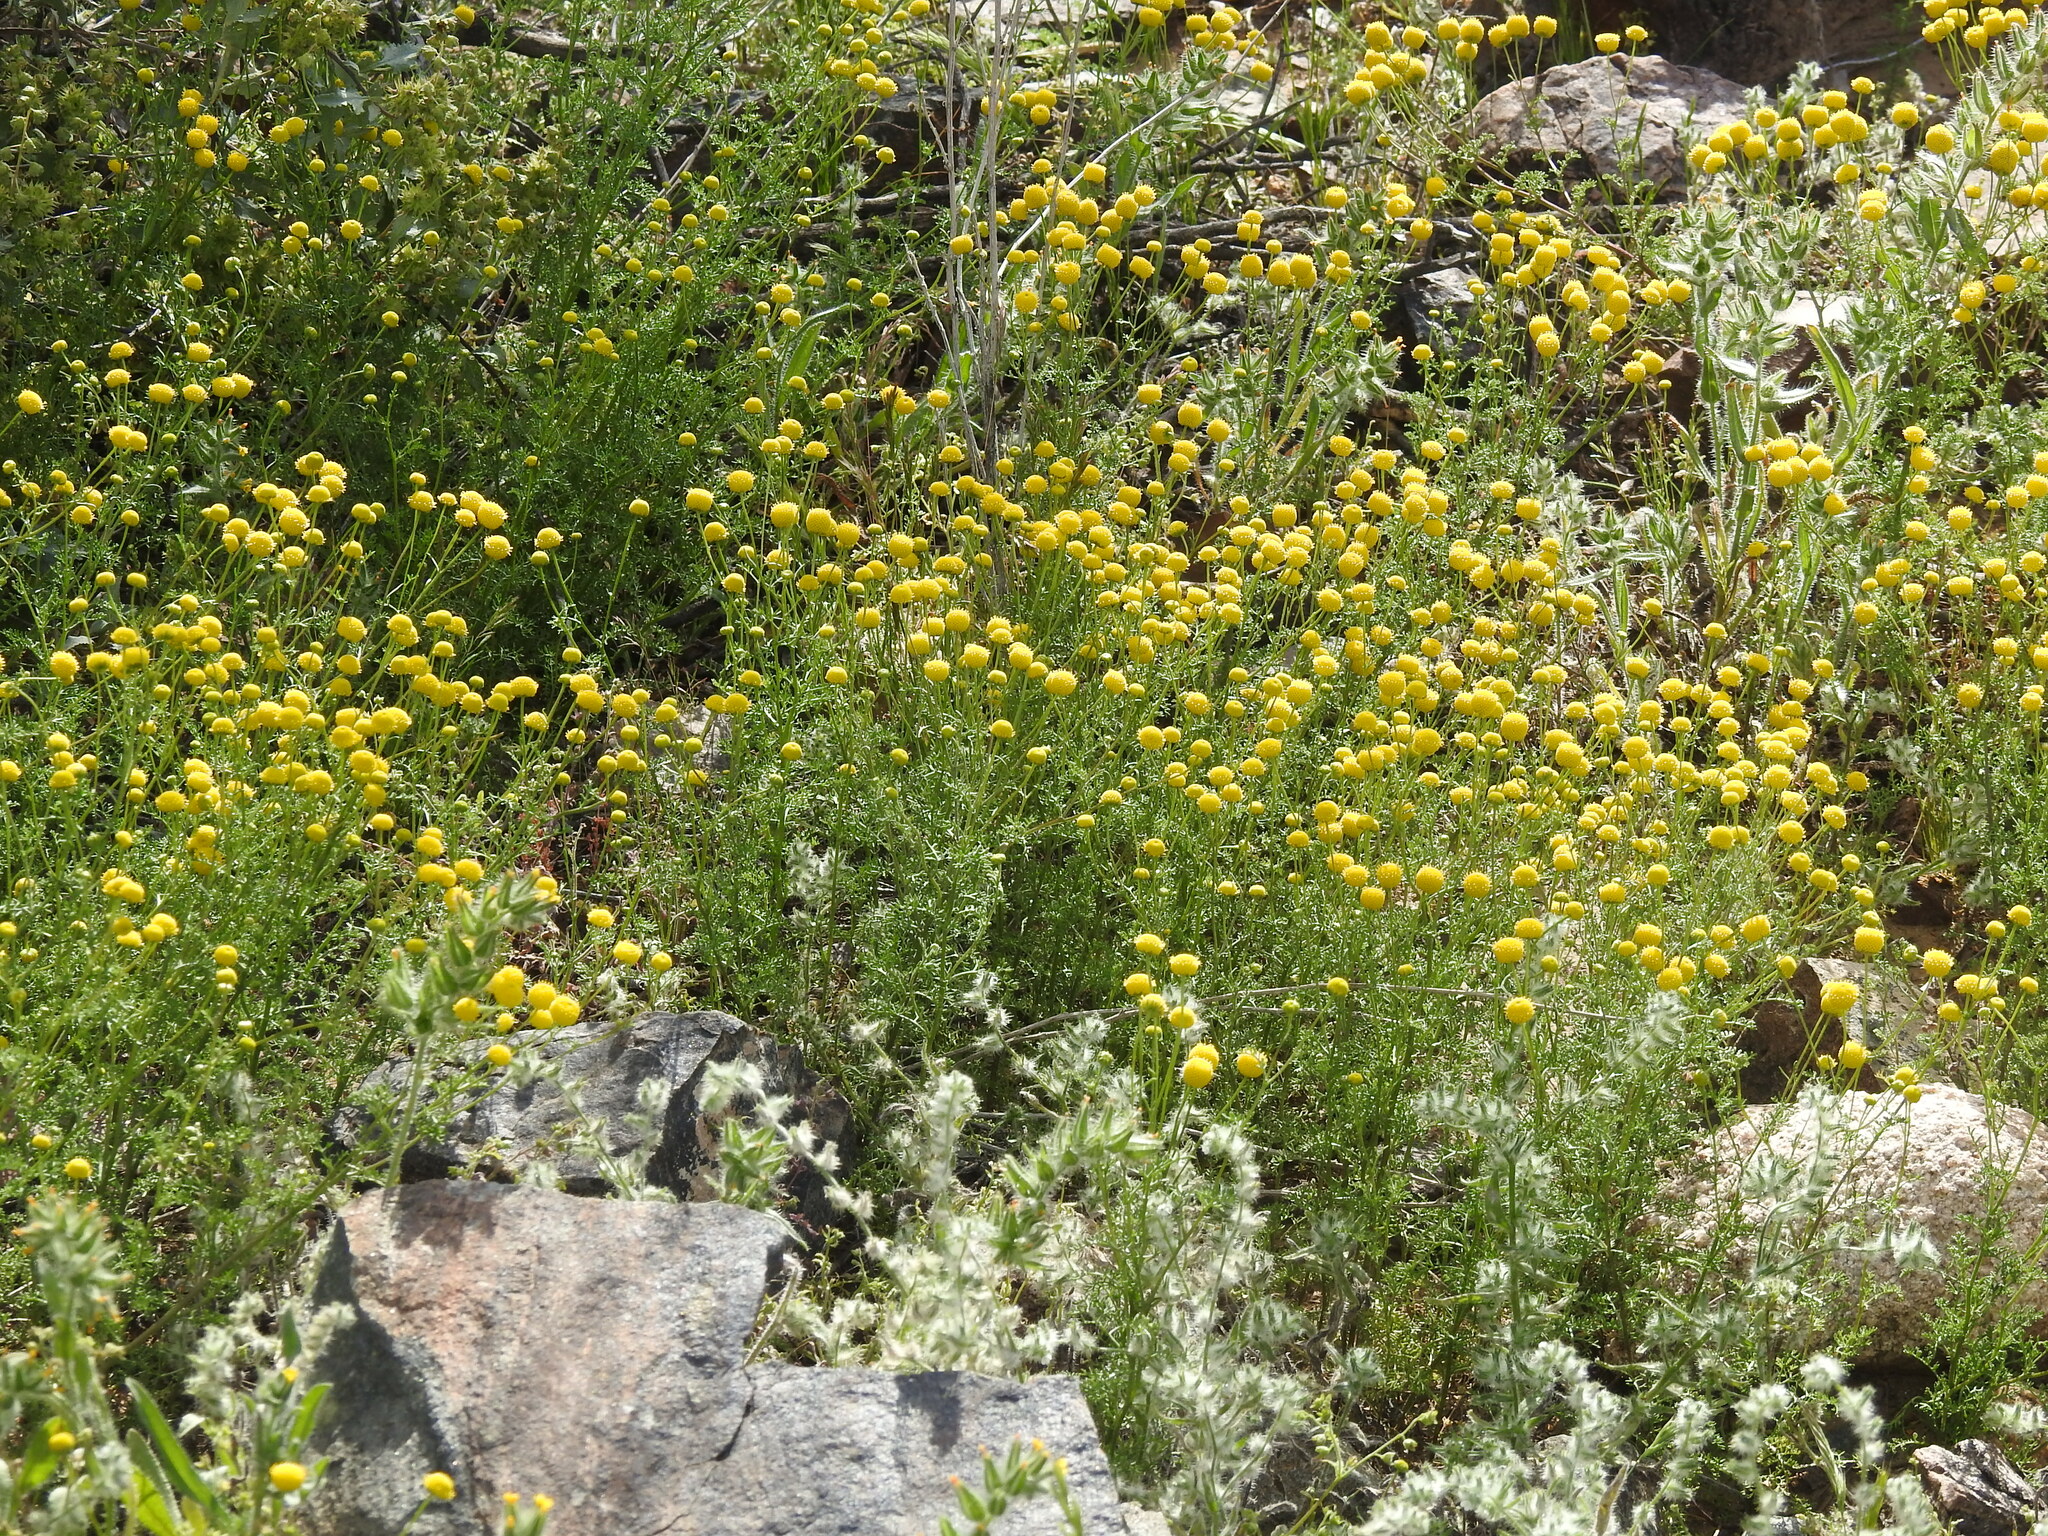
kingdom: Plantae
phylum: Tracheophyta
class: Magnoliopsida
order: Asterales
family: Asteraceae
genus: Oncosiphon
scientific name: Oncosiphon pilulifer
